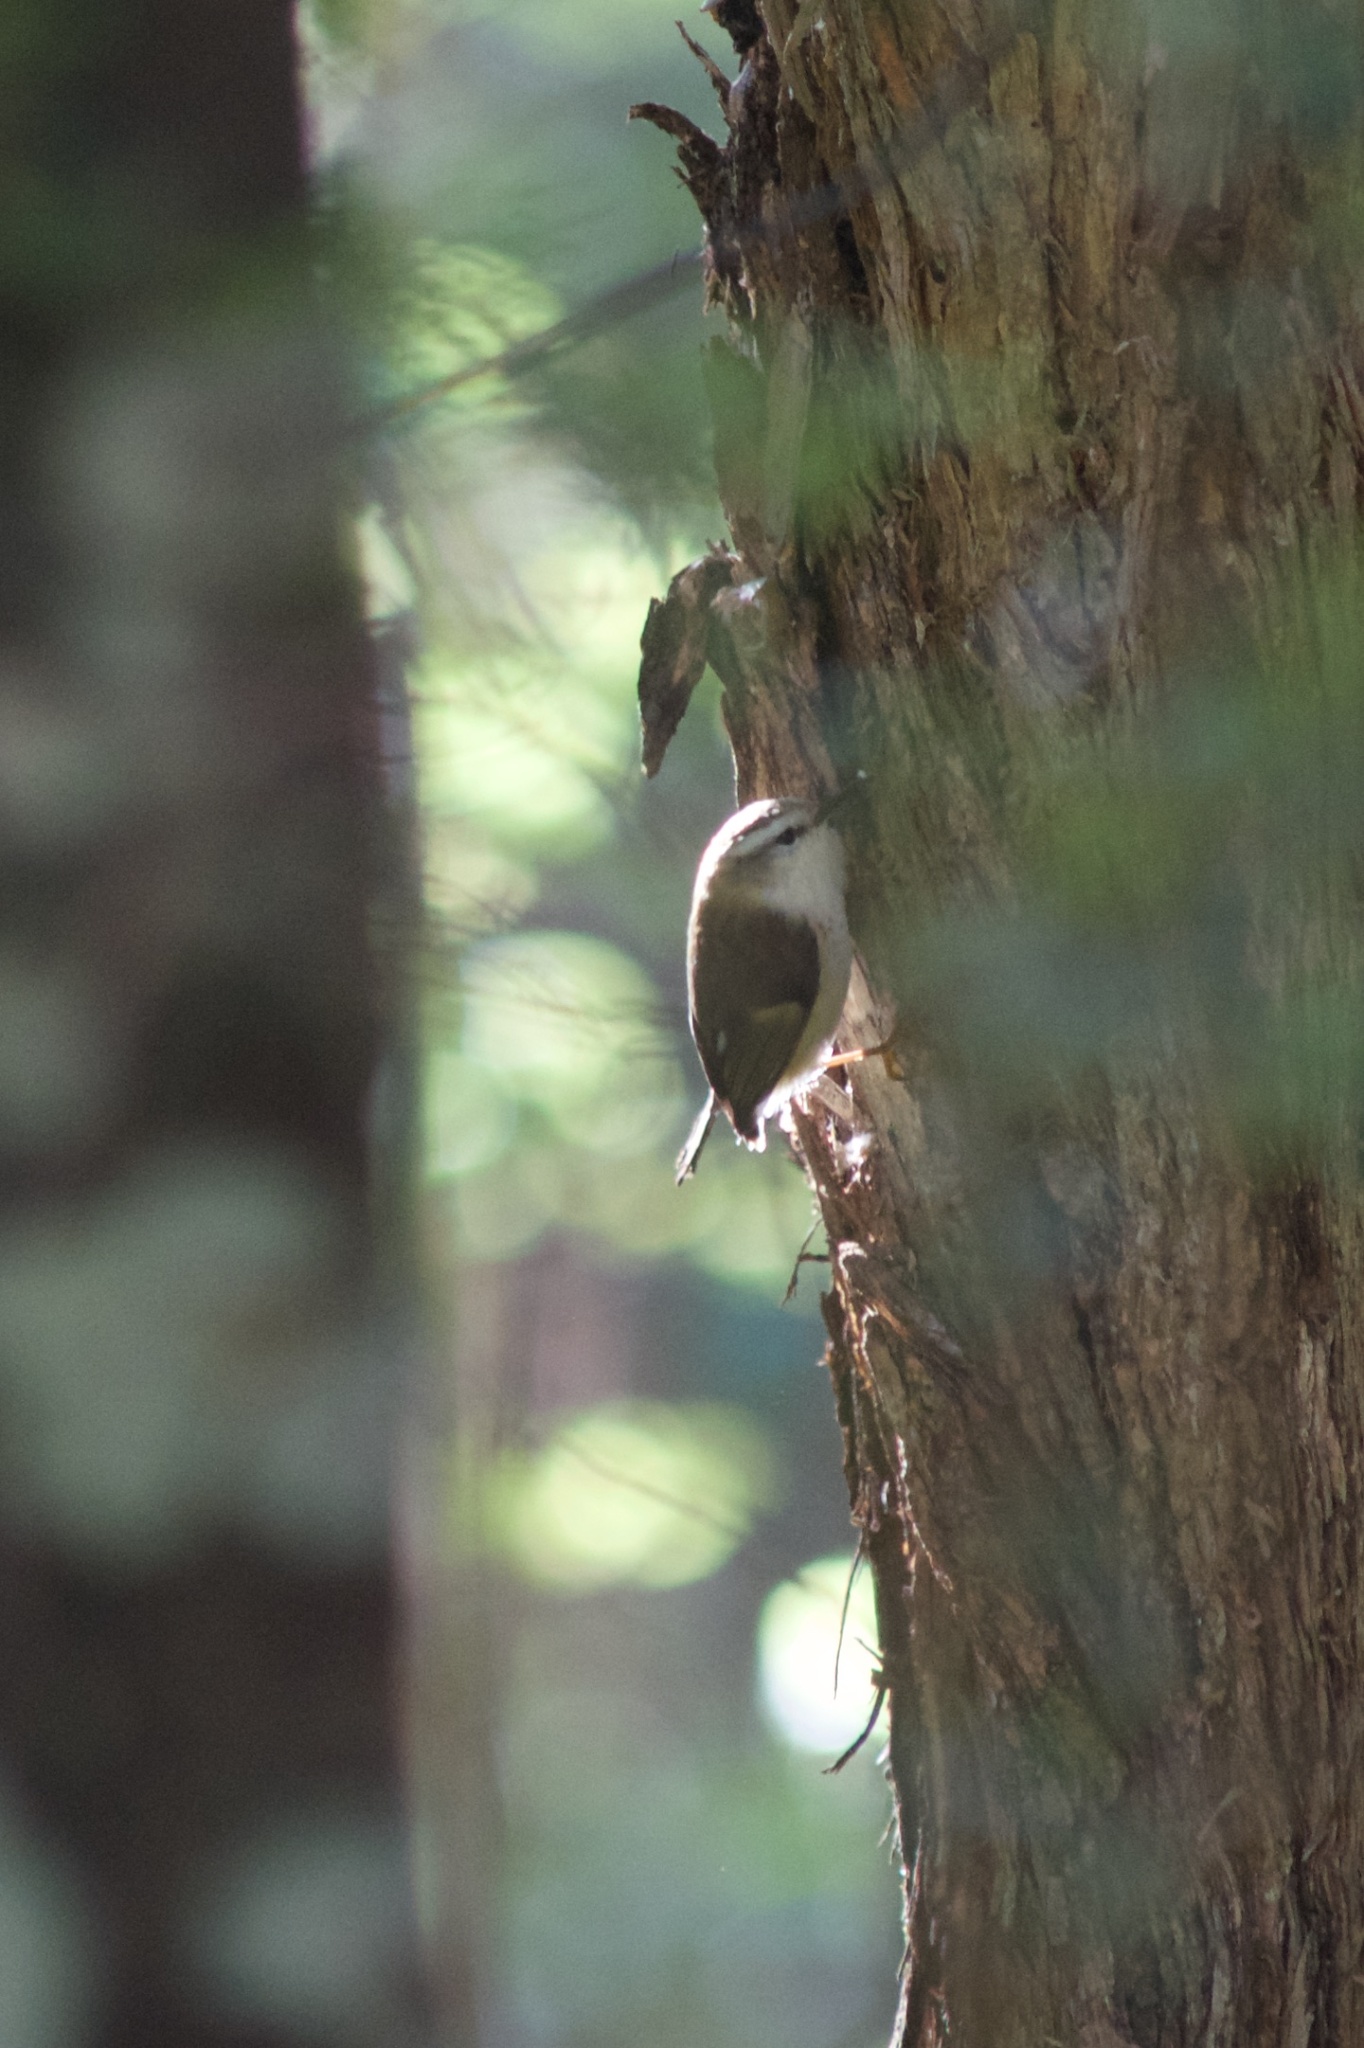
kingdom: Animalia
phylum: Chordata
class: Aves
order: Passeriformes
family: Acanthisittidae
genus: Acanthisitta
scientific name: Acanthisitta chloris
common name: Rifleman
